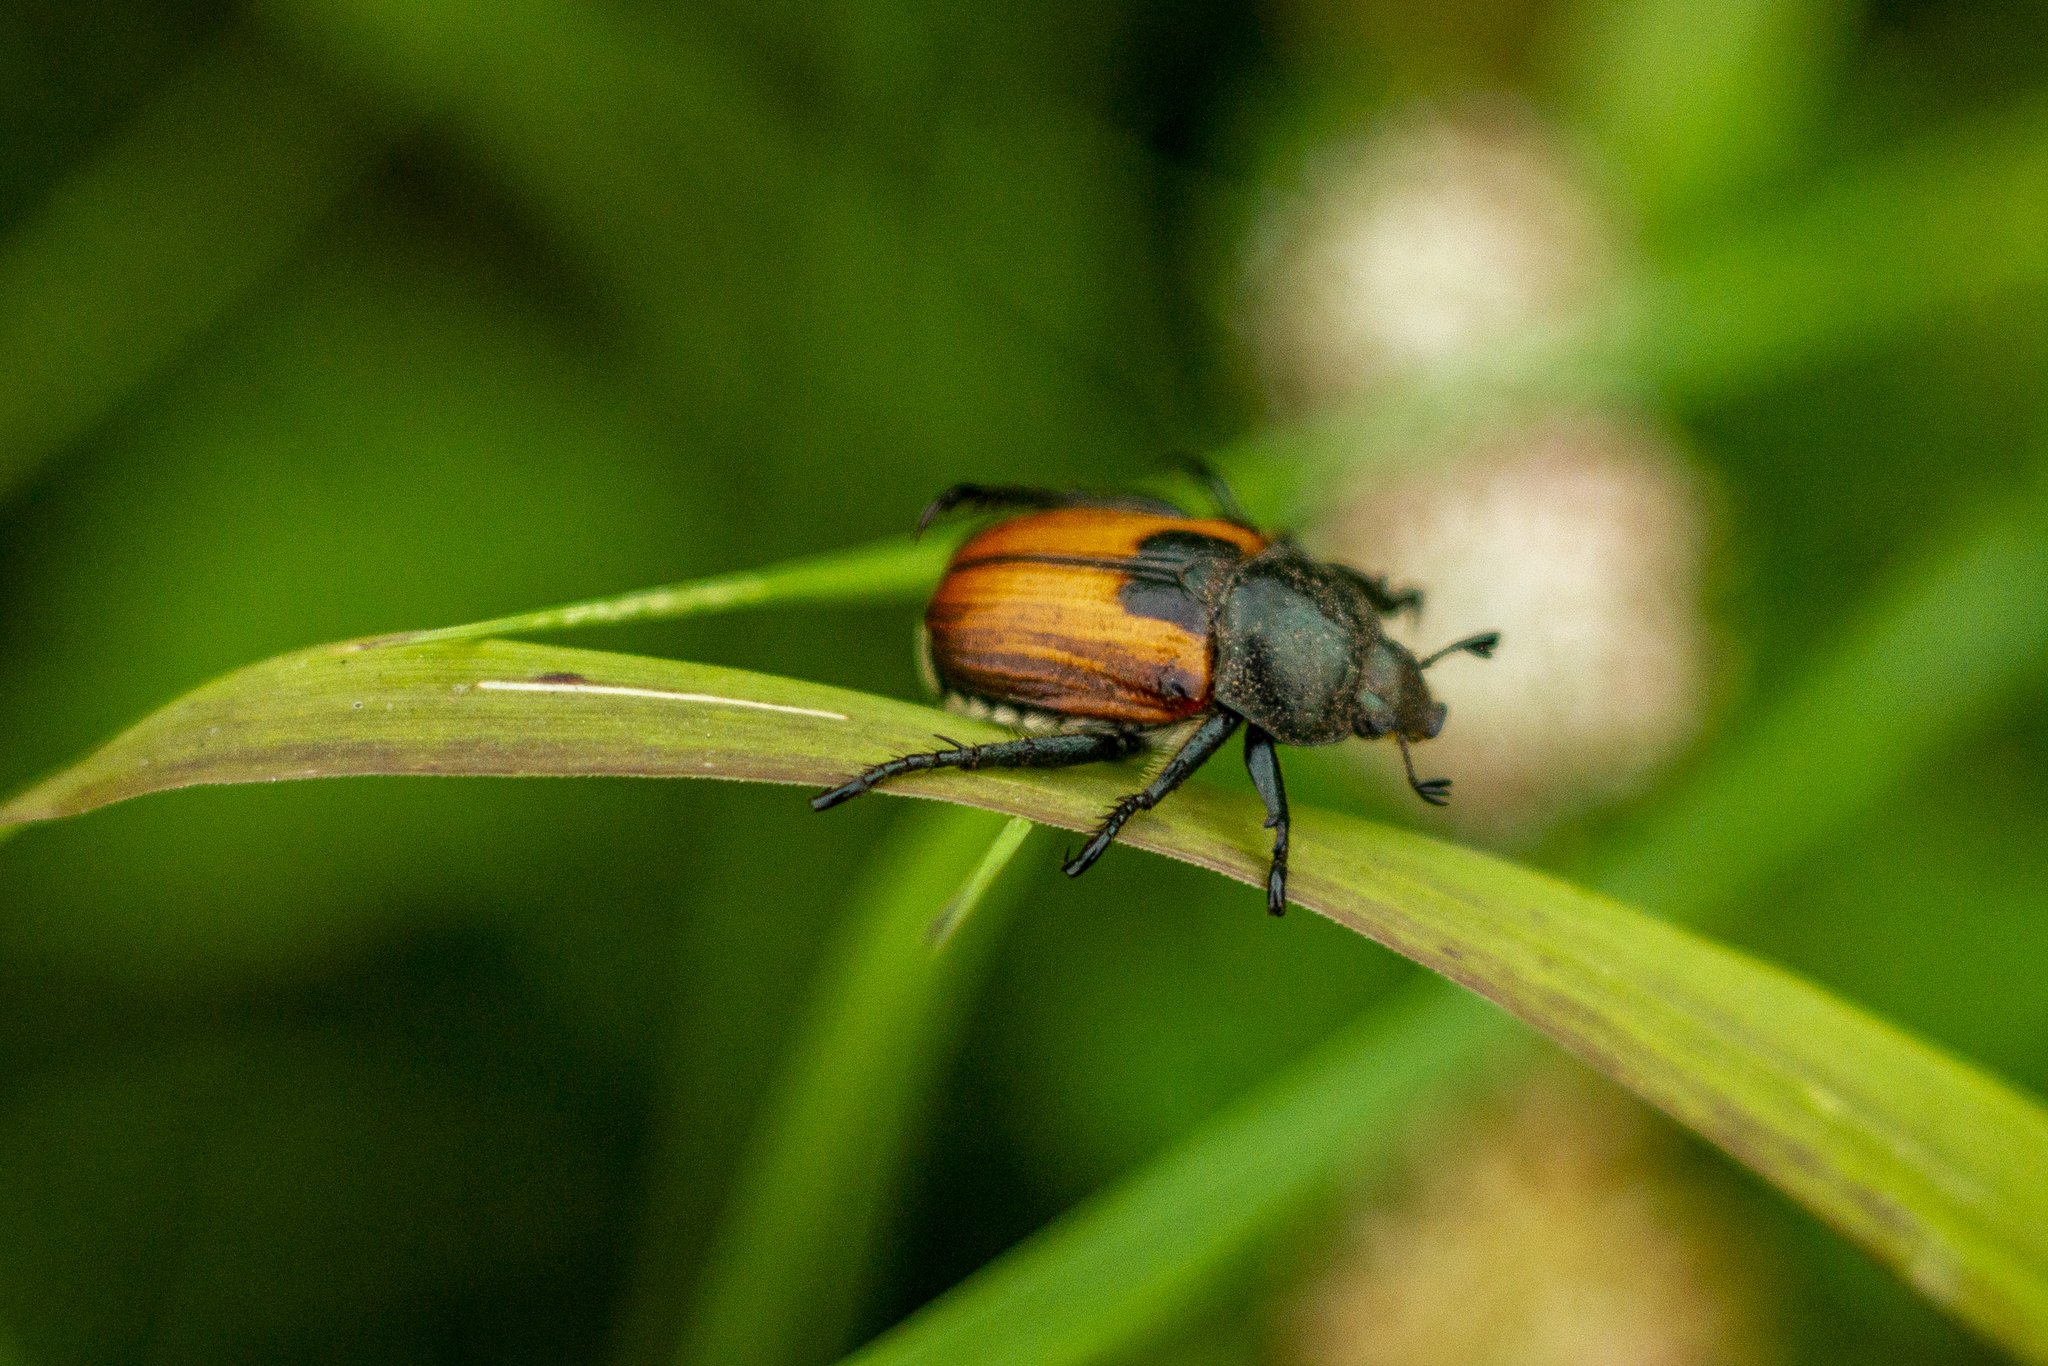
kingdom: Animalia
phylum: Arthropoda
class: Insecta
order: Coleoptera
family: Scarabaeidae
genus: Anisoplia
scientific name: Anisoplia austriaca
